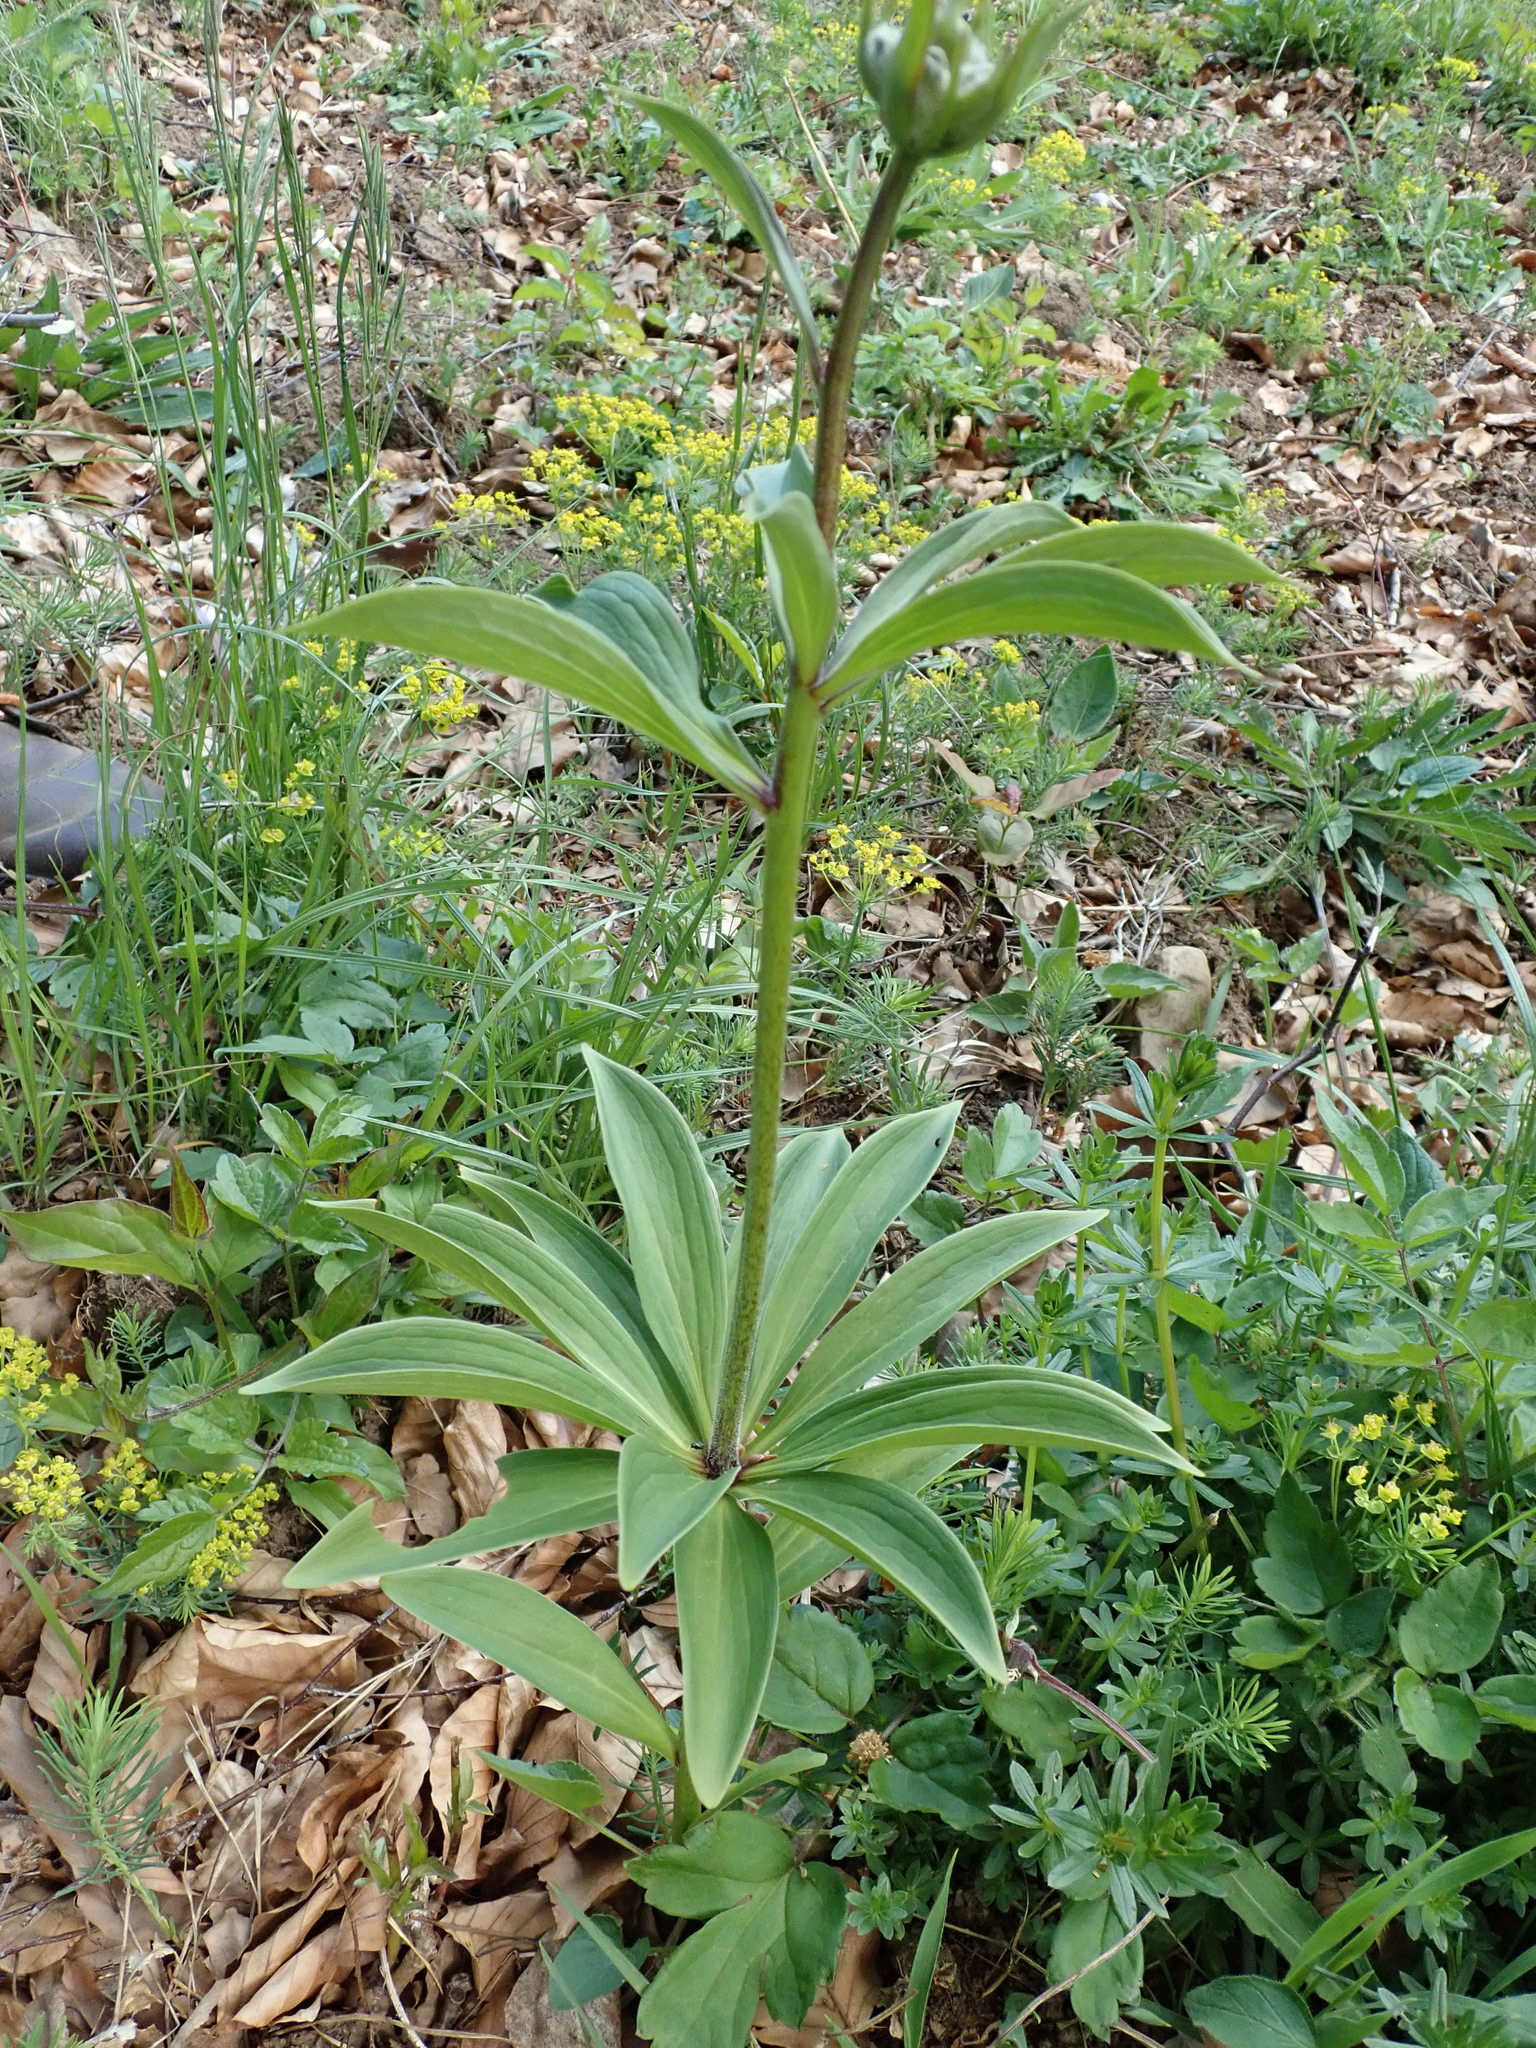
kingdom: Plantae
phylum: Tracheophyta
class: Liliopsida
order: Liliales
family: Liliaceae
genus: Lilium
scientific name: Lilium martagon
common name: Martagon lily
